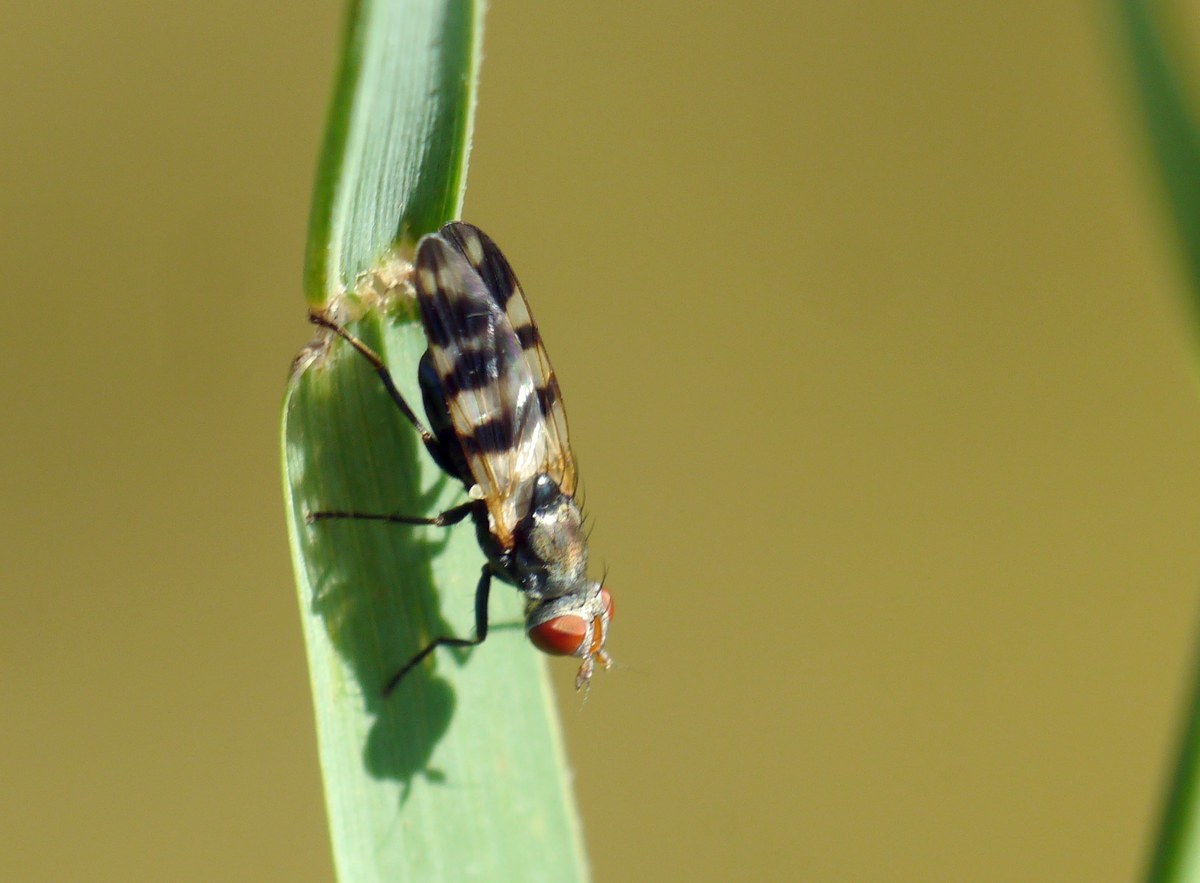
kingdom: Animalia
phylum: Arthropoda
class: Insecta
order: Diptera
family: Ulidiidae
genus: Ceroxys
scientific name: Ceroxys urticae
